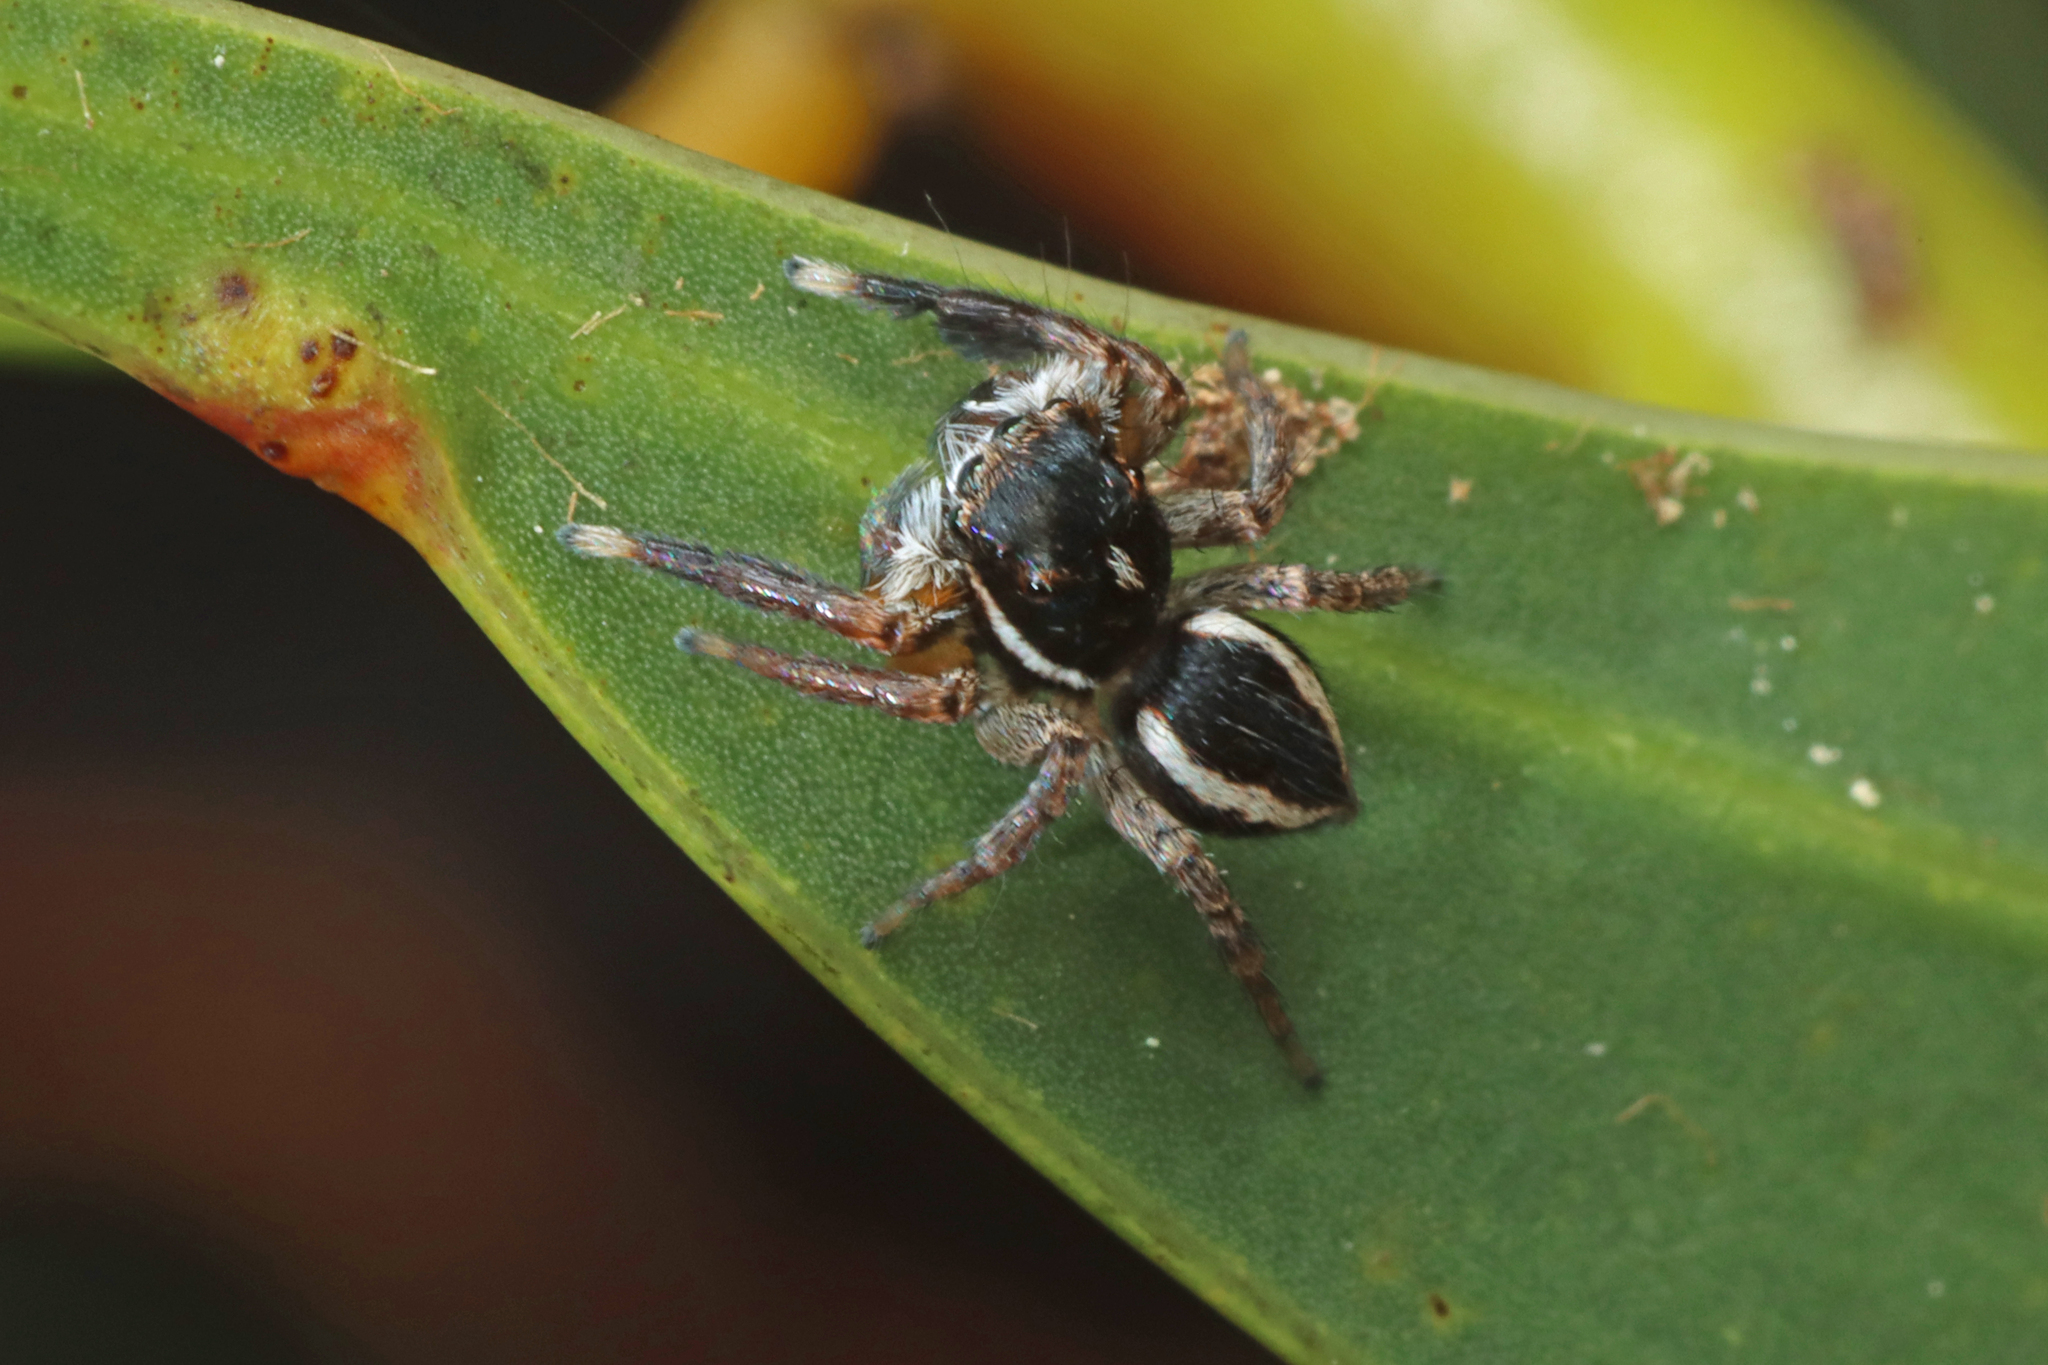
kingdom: Animalia
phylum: Arthropoda
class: Arachnida
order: Araneae
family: Salticidae
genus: Jotus
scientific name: Jotus auripes
